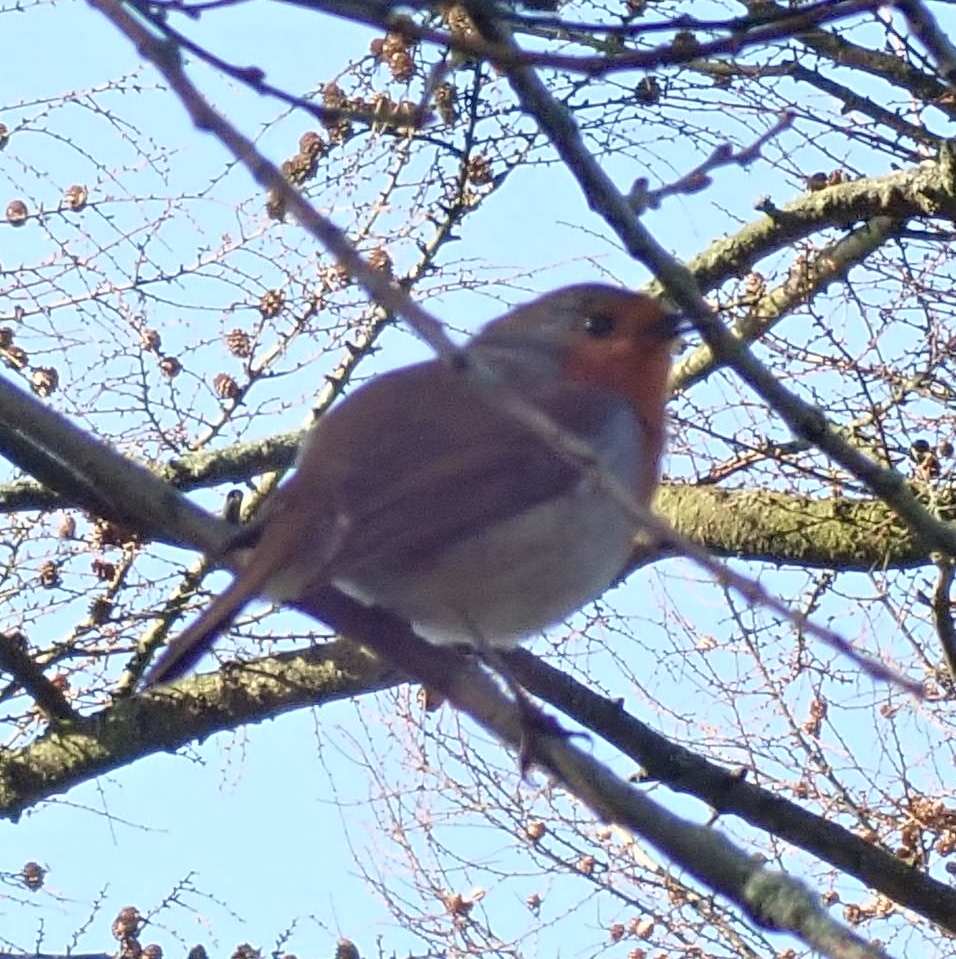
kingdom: Animalia
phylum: Chordata
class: Aves
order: Passeriformes
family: Muscicapidae
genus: Erithacus
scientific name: Erithacus rubecula
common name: European robin
